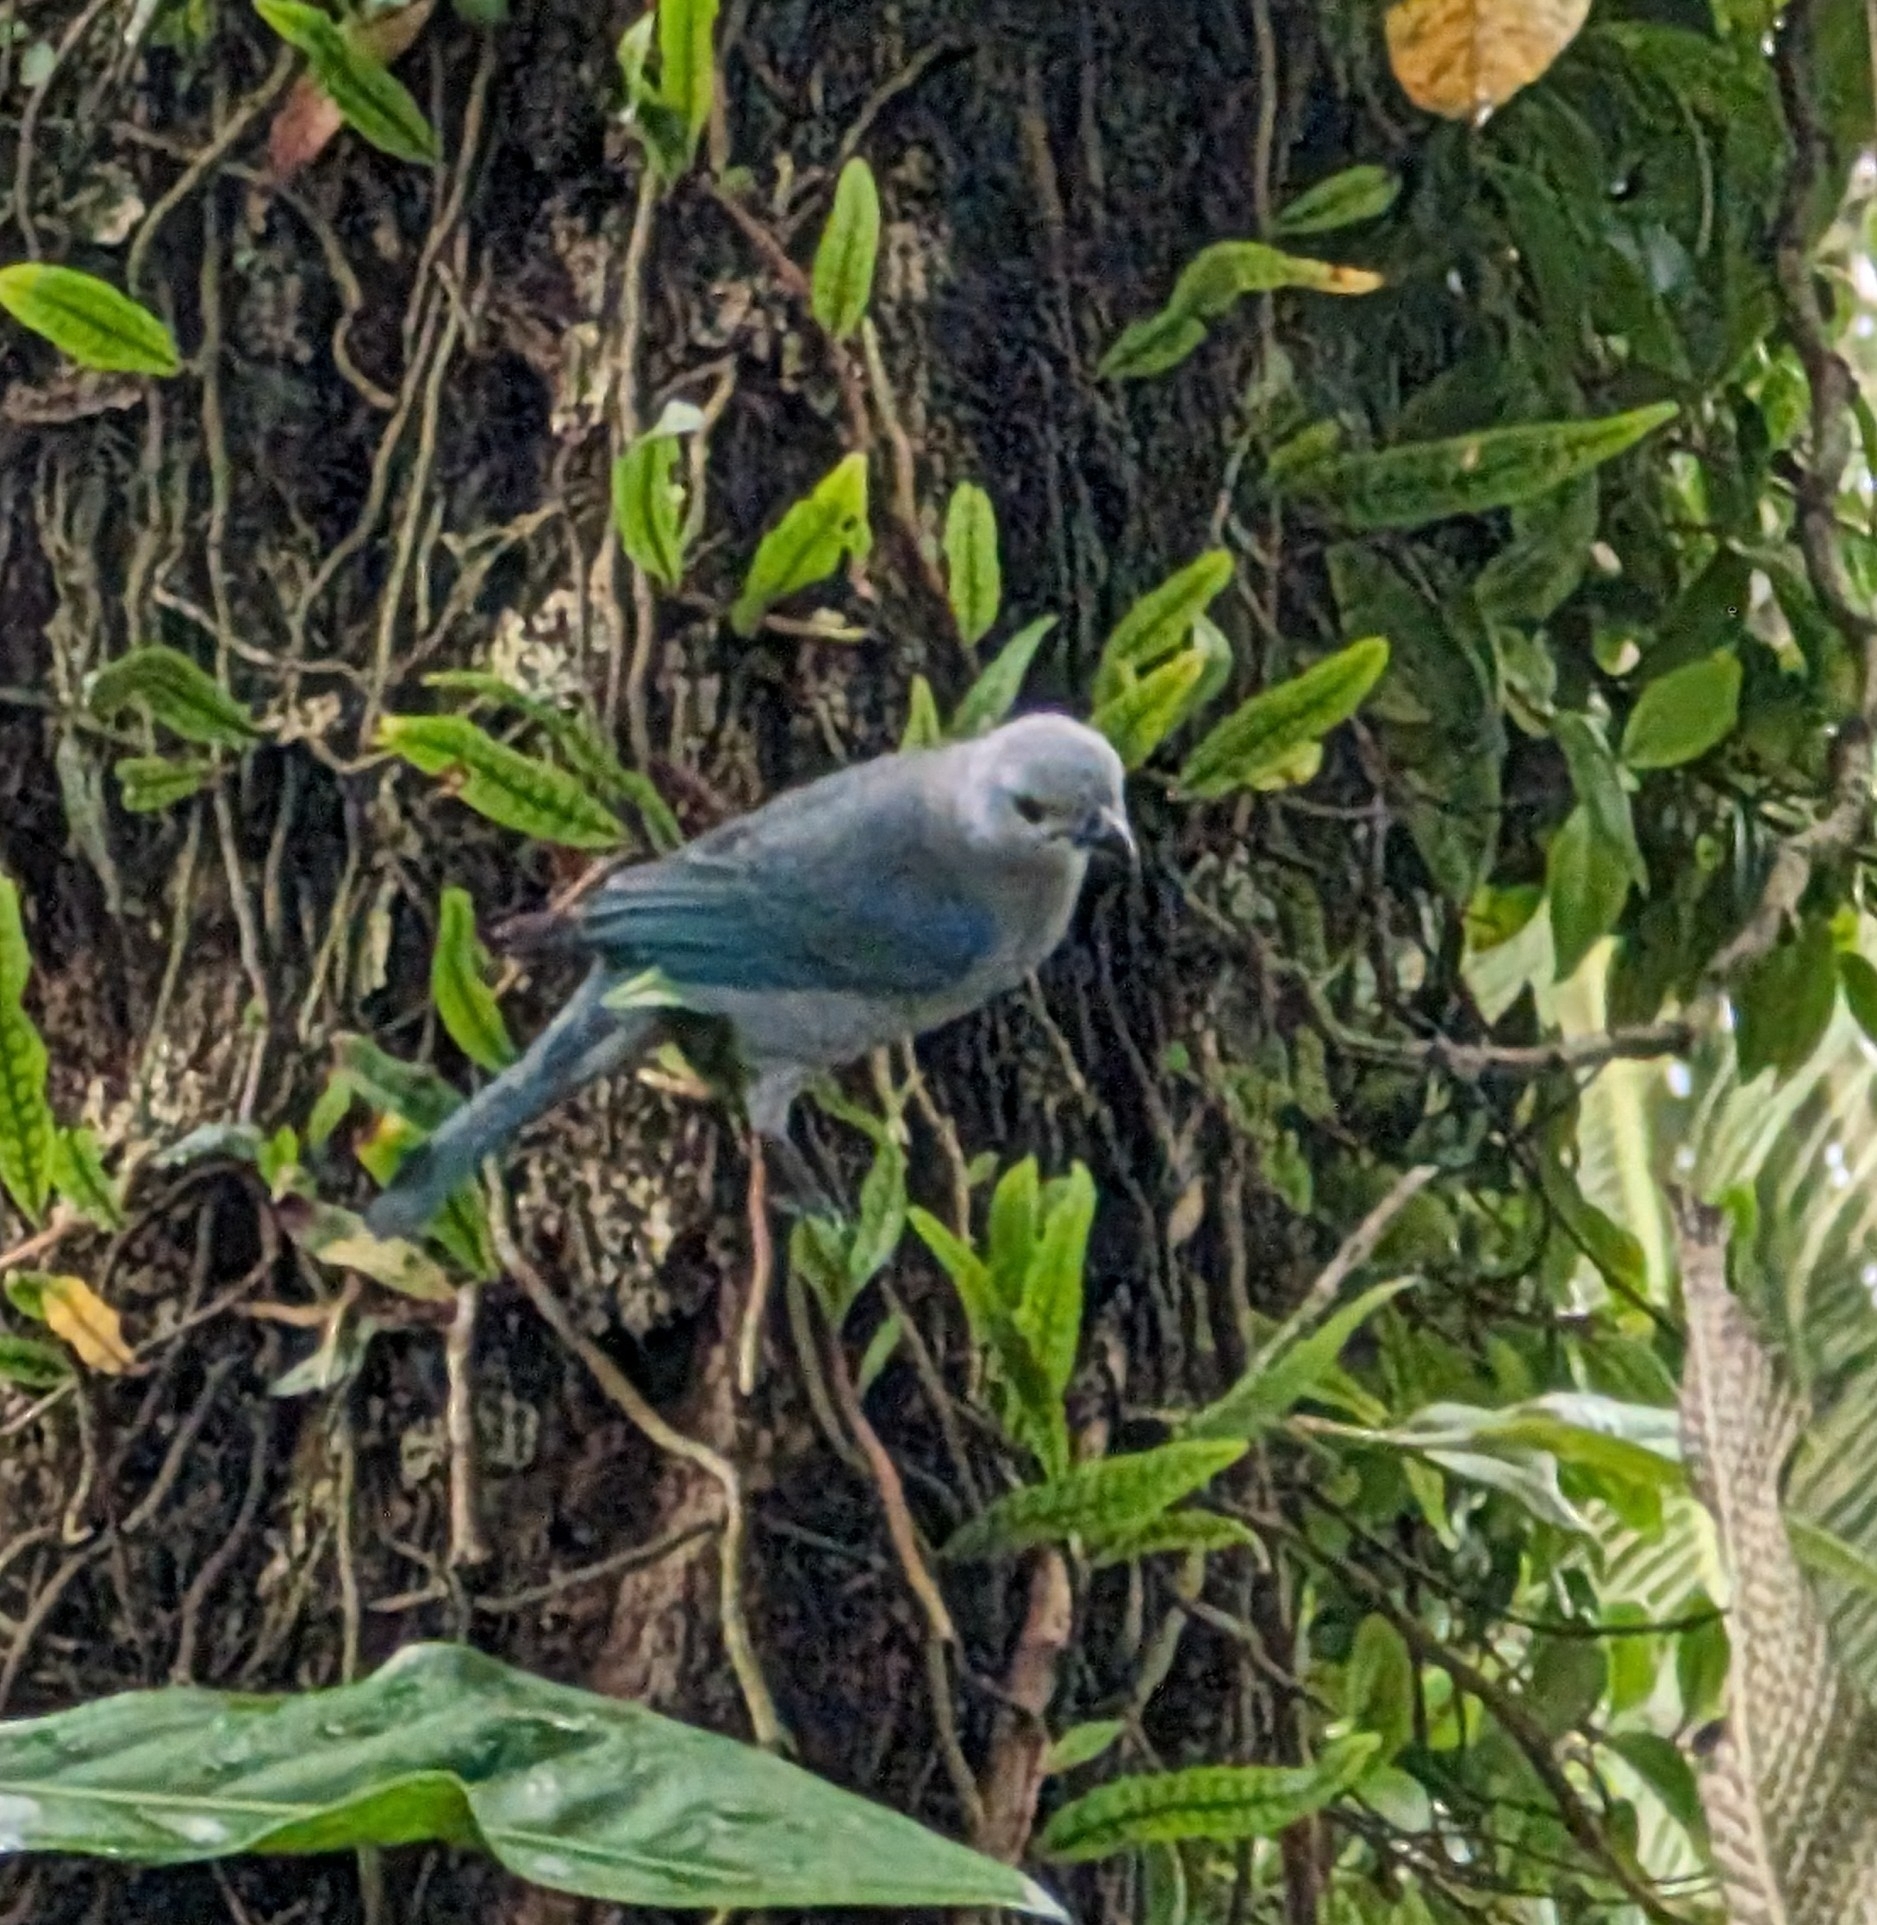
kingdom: Animalia
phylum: Chordata
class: Aves
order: Passeriformes
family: Thraupidae
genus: Thraupis
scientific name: Thraupis episcopus
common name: Blue-grey tanager
